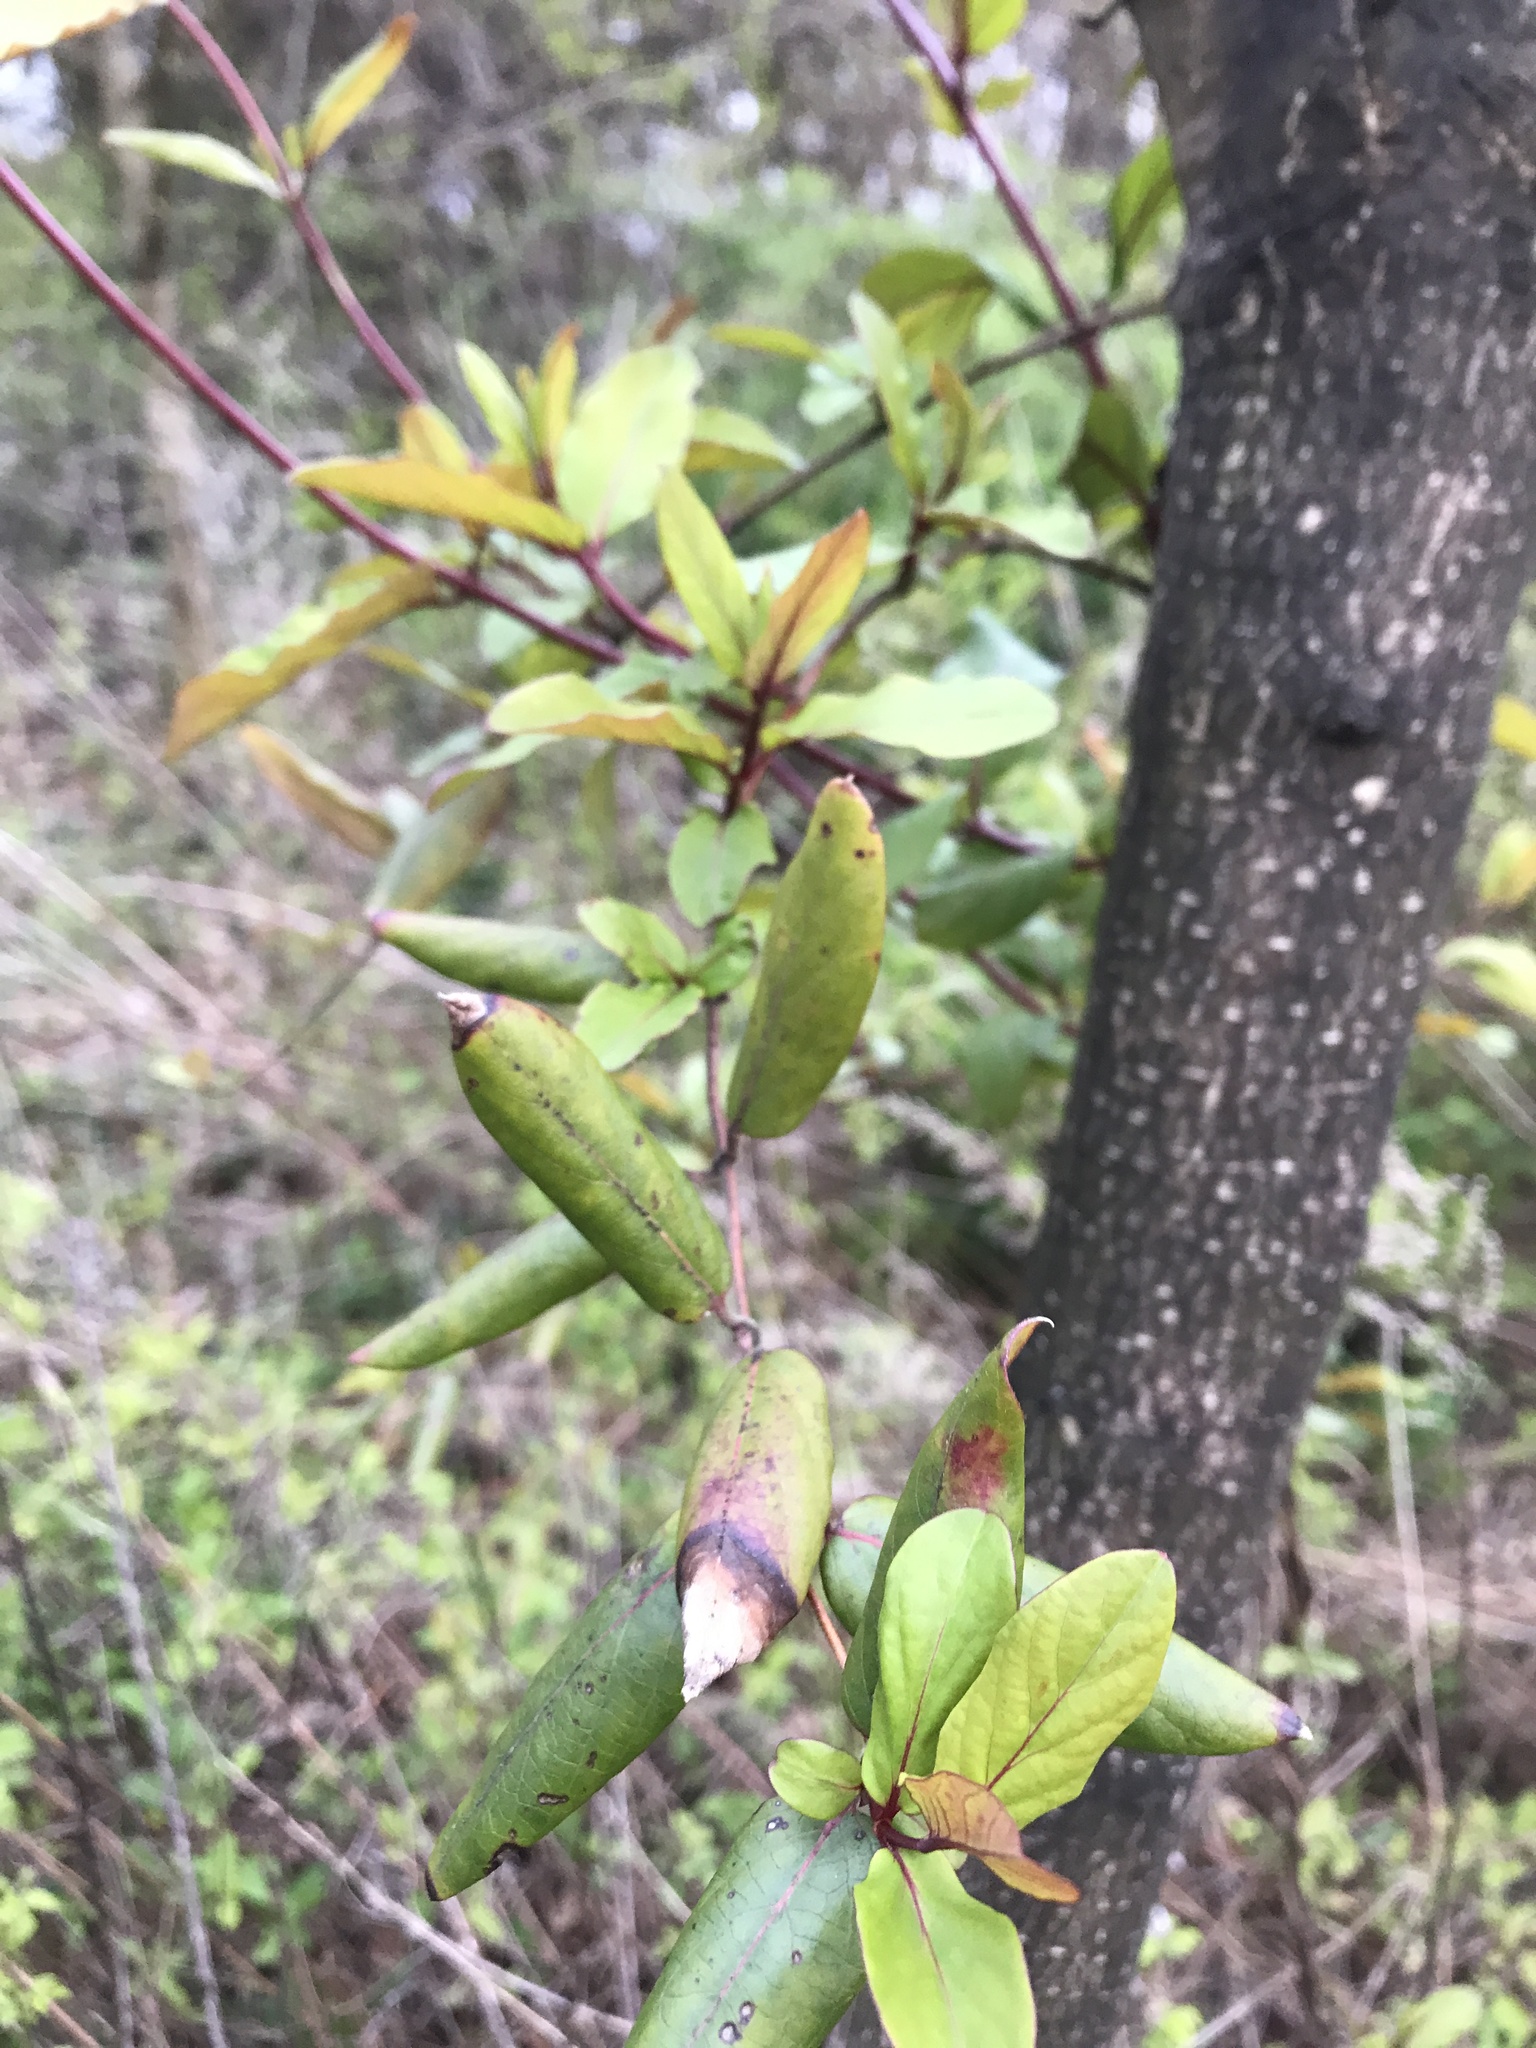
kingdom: Plantae
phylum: Tracheophyta
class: Magnoliopsida
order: Dipsacales
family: Caprifoliaceae
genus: Lonicera
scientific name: Lonicera japonica
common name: Japanese honeysuckle
